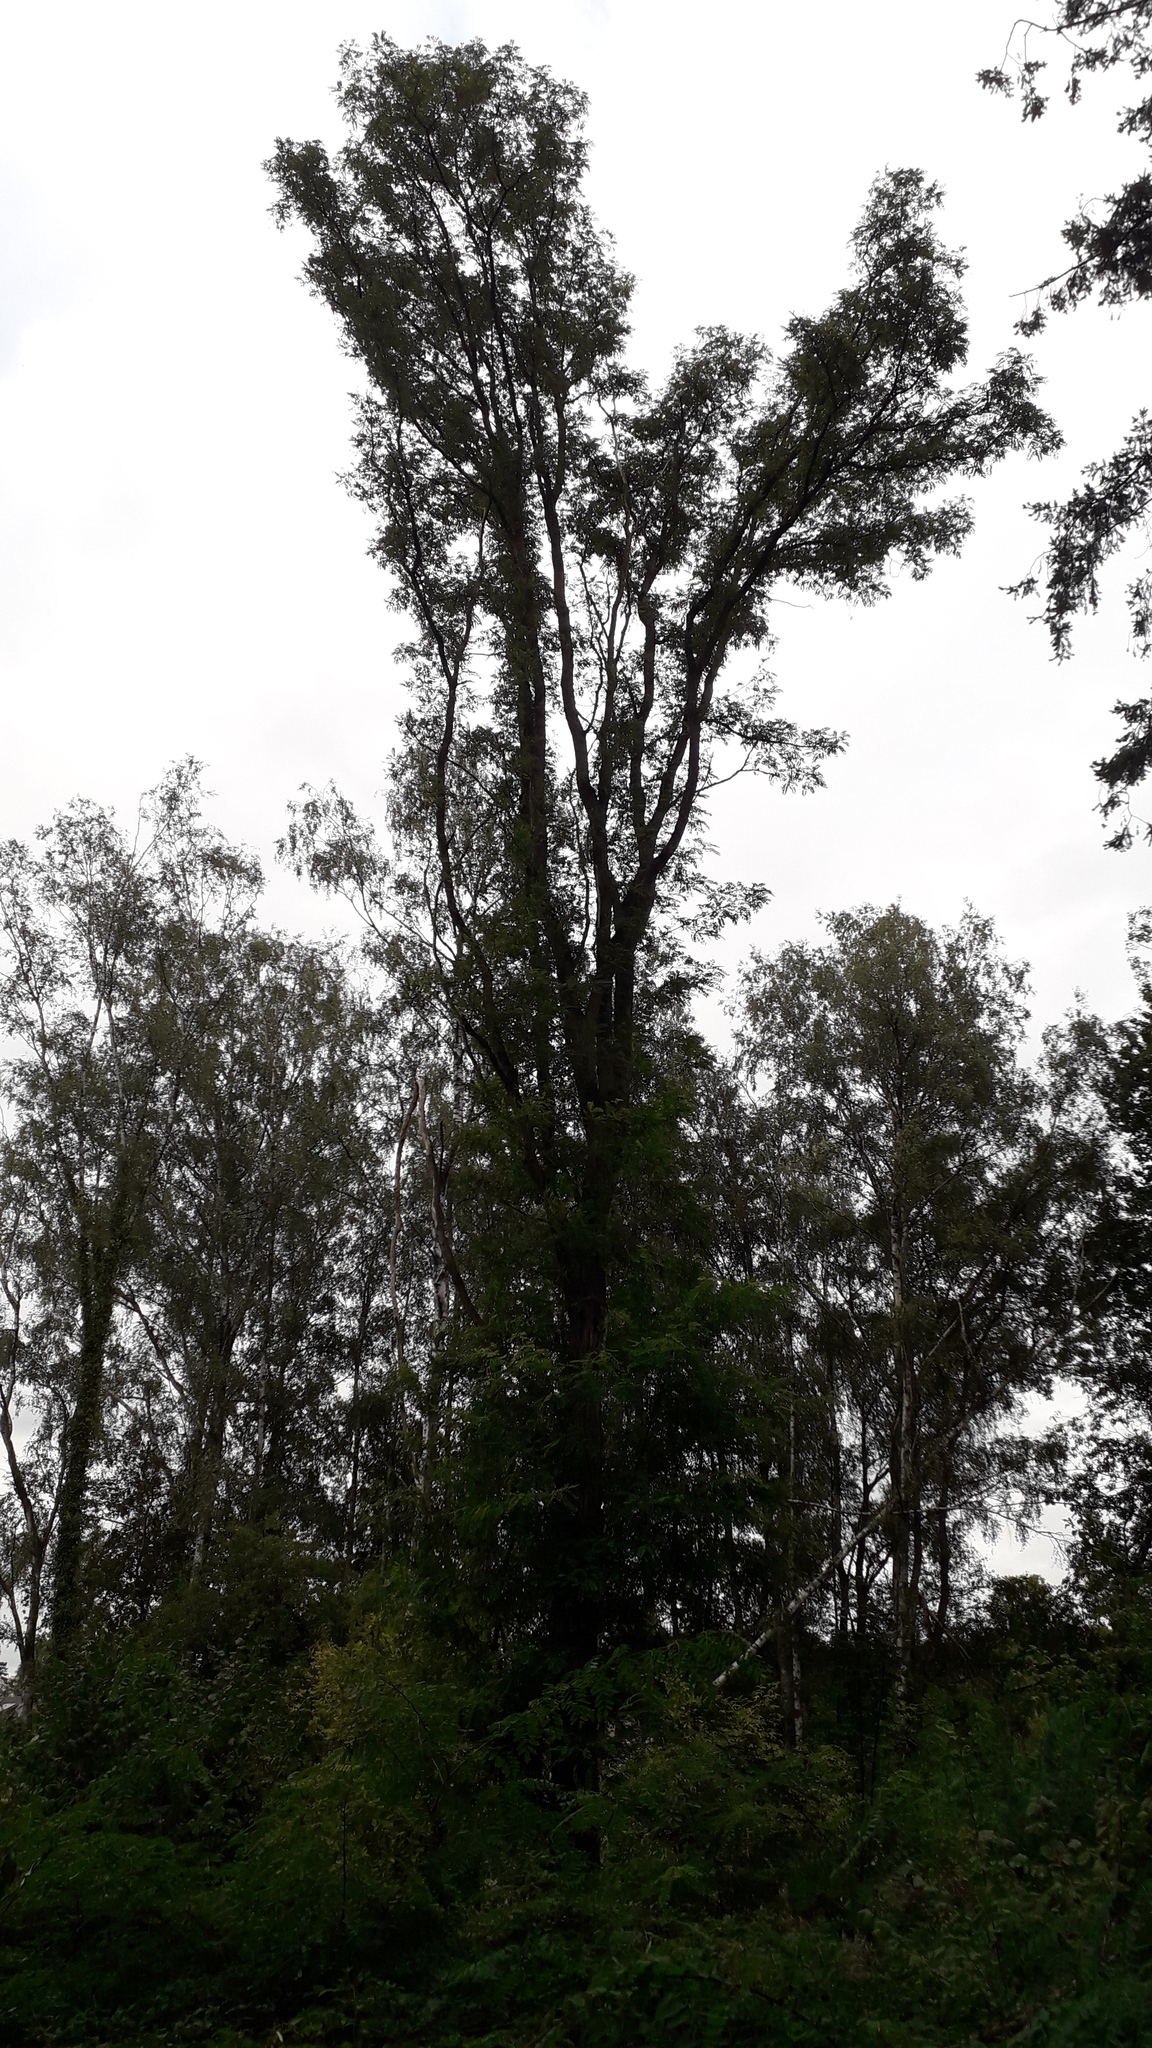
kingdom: Animalia
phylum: Arthropoda
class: Insecta
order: Hymenoptera
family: Vespidae
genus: Vespa
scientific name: Vespa velutina
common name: Asian hornet
